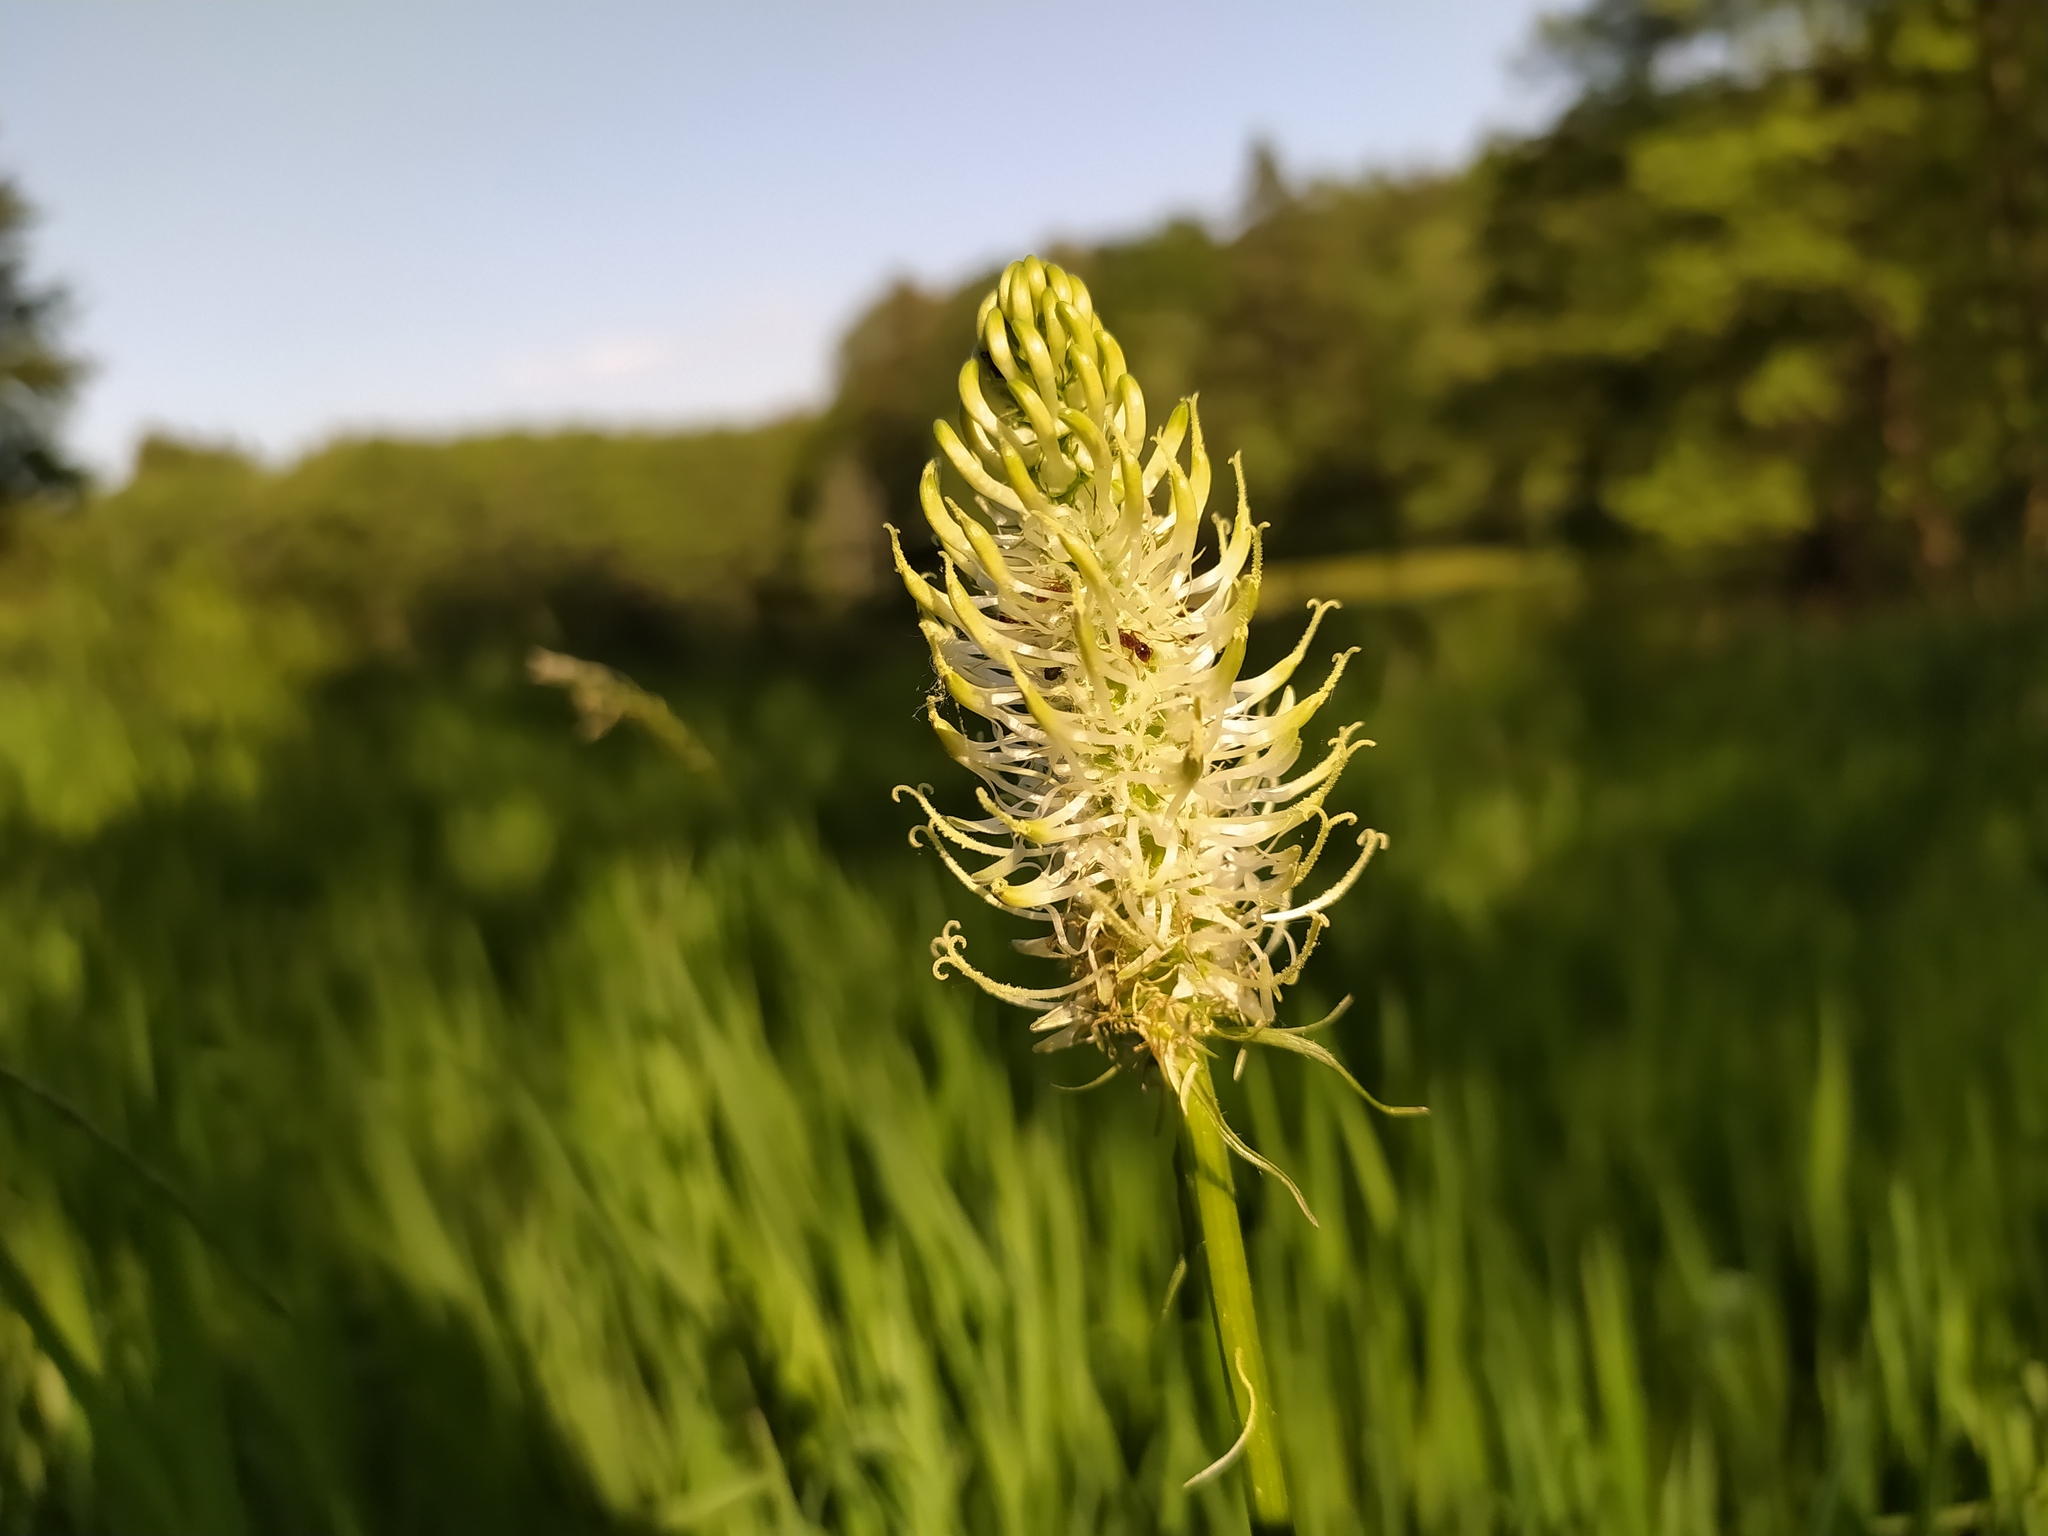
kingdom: Plantae
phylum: Tracheophyta
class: Magnoliopsida
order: Asterales
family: Campanulaceae
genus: Phyteuma
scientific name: Phyteuma spicatum
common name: Spiked rampion
